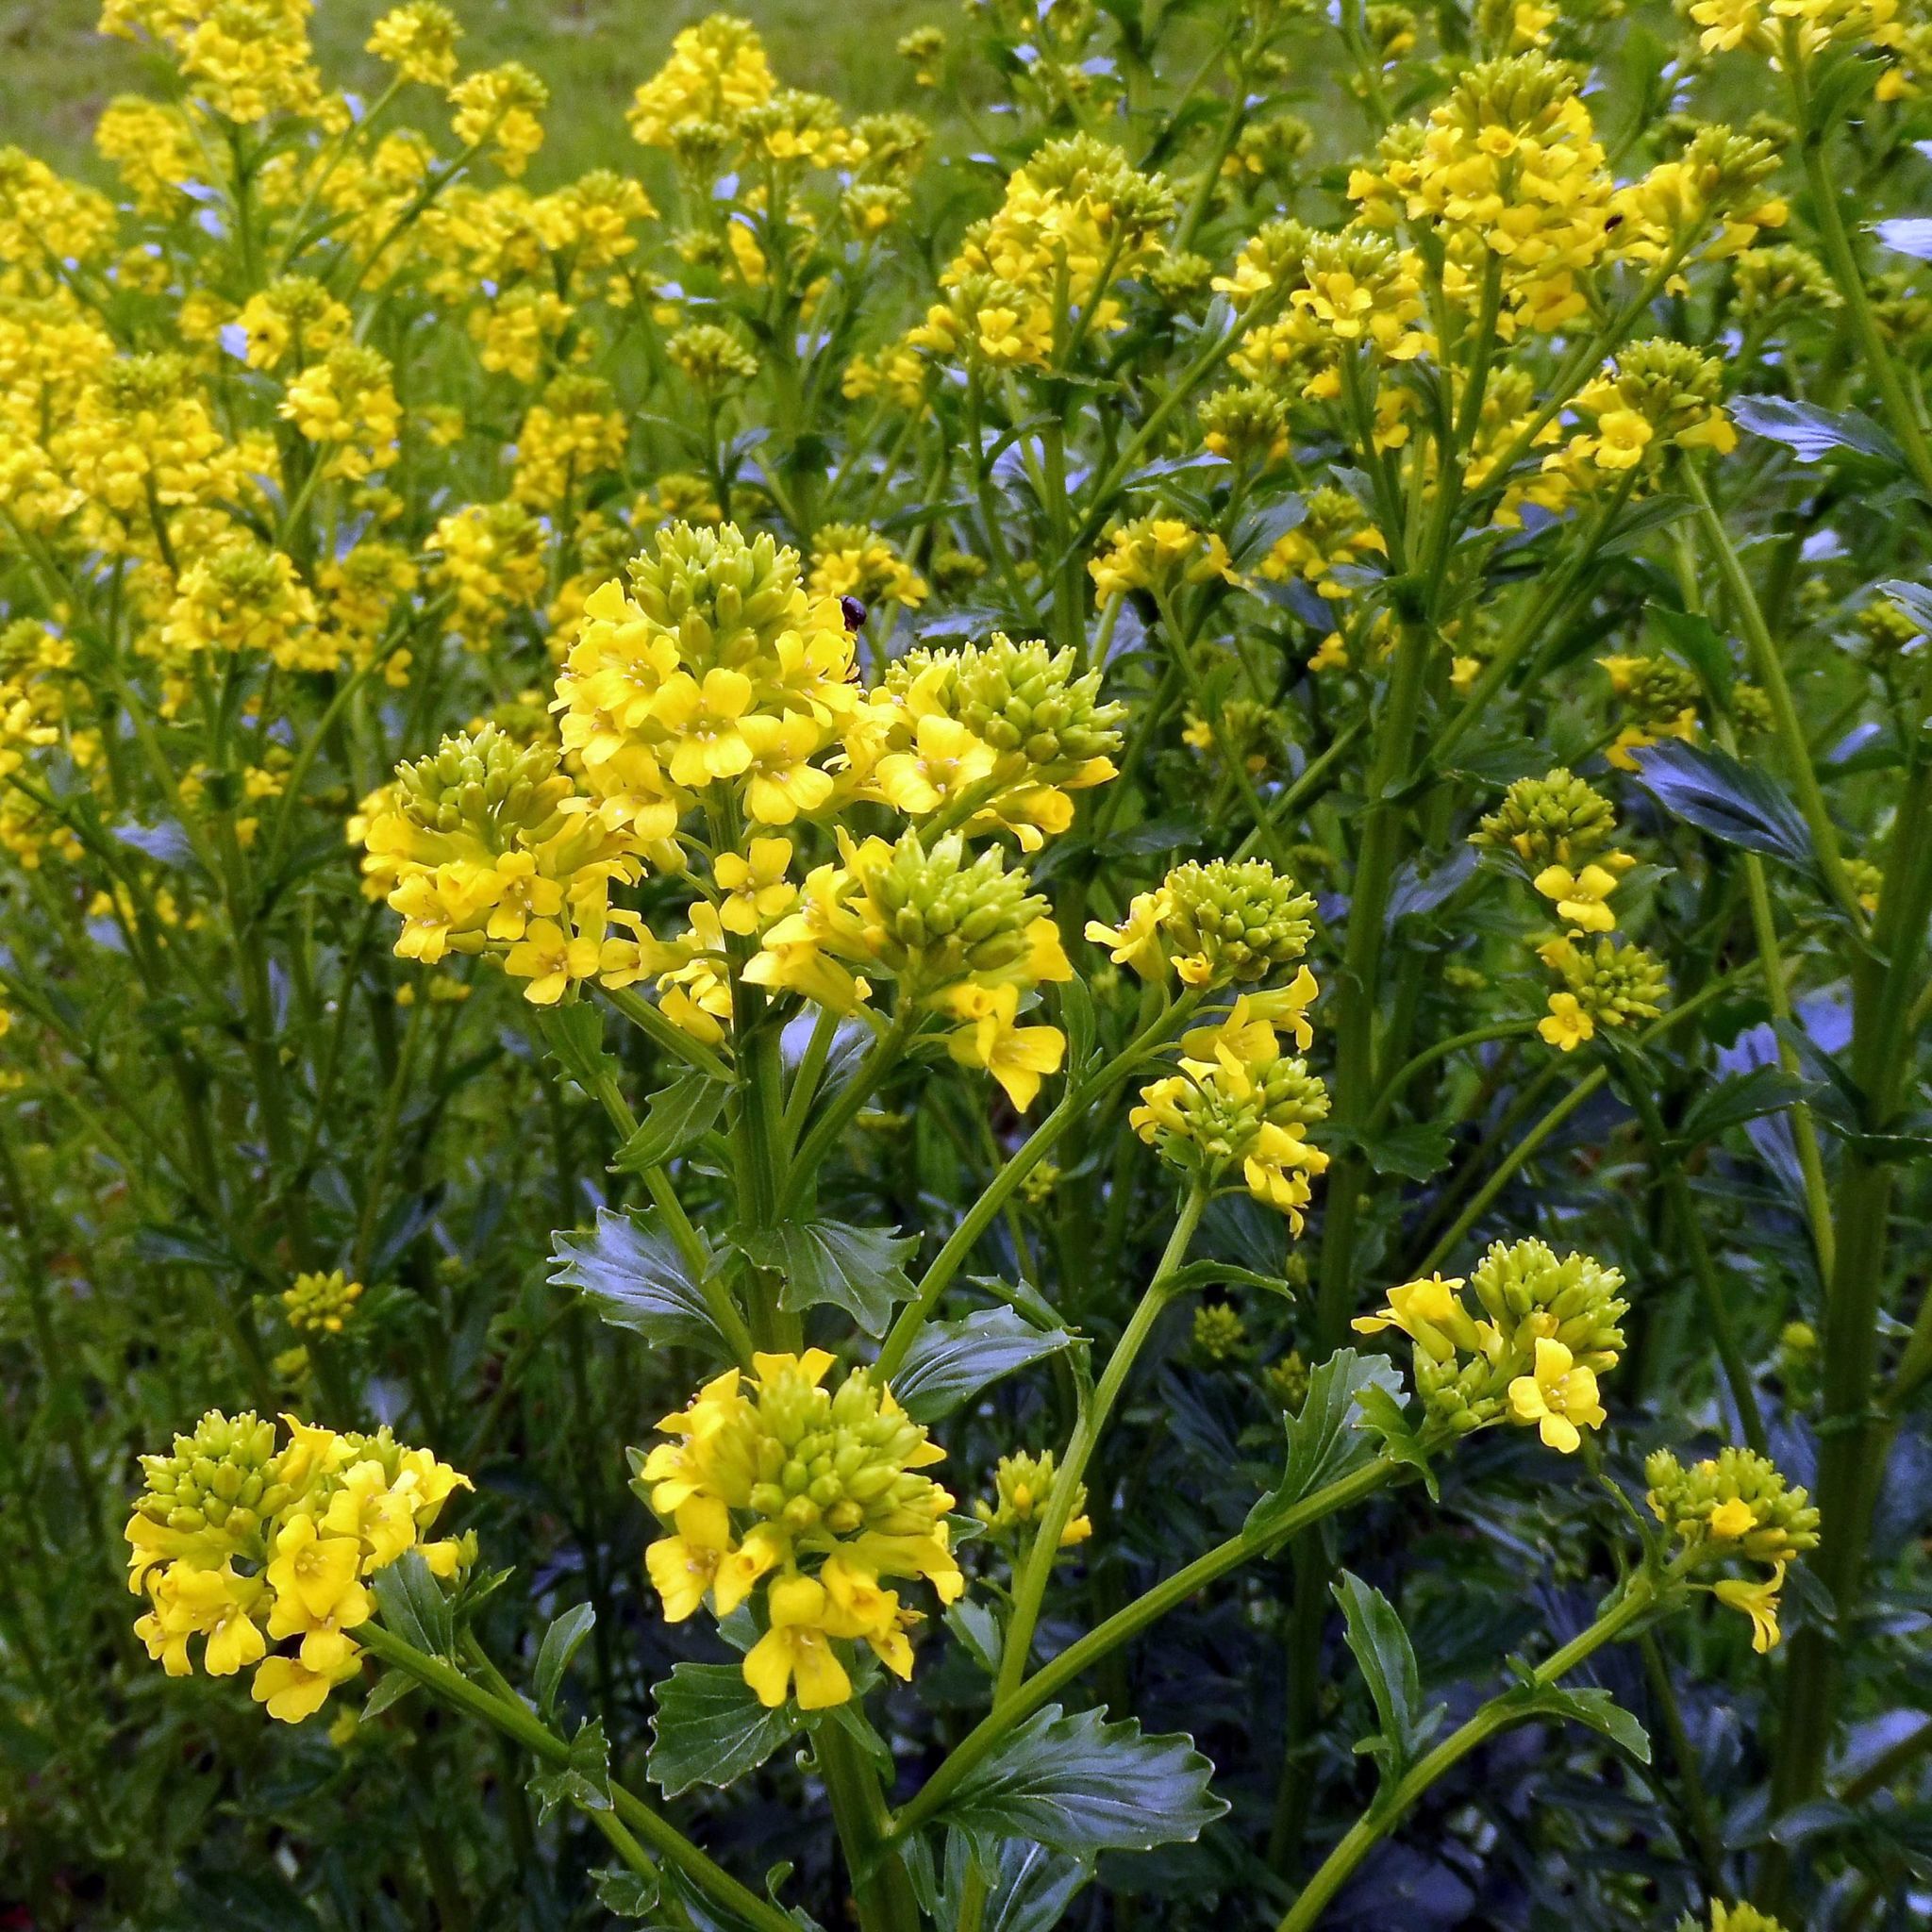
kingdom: Plantae
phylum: Tracheophyta
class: Magnoliopsida
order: Brassicales
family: Brassicaceae
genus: Barbarea
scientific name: Barbarea vulgaris
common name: Cressy-greens
